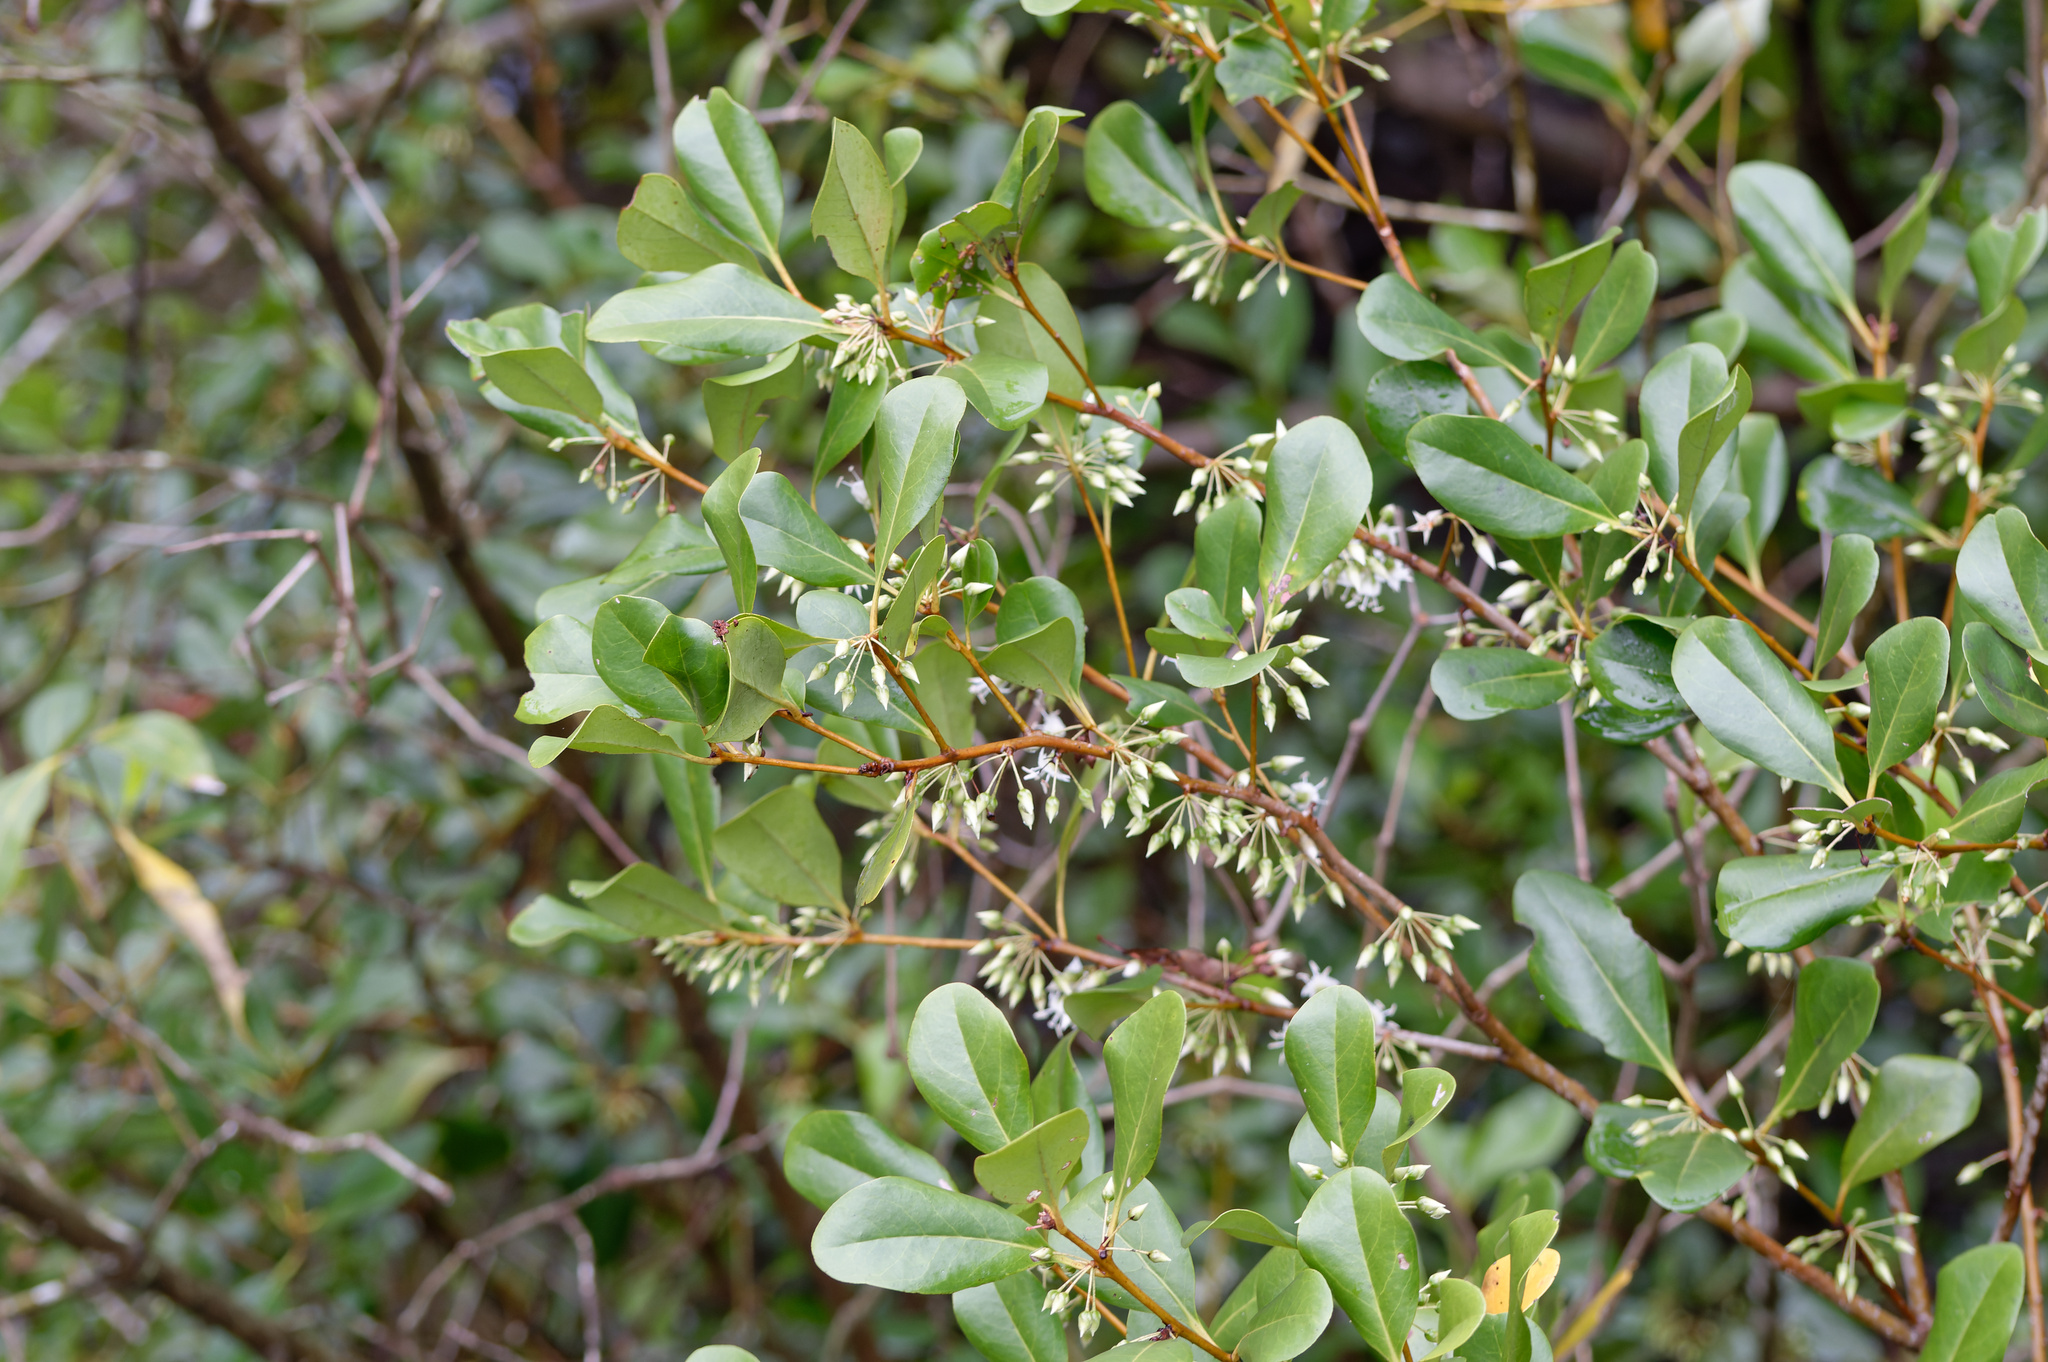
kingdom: Plantae
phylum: Tracheophyta
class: Magnoliopsida
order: Ericales
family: Primulaceae
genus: Aegiceras
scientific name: Aegiceras corniculatum
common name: River mangrove
